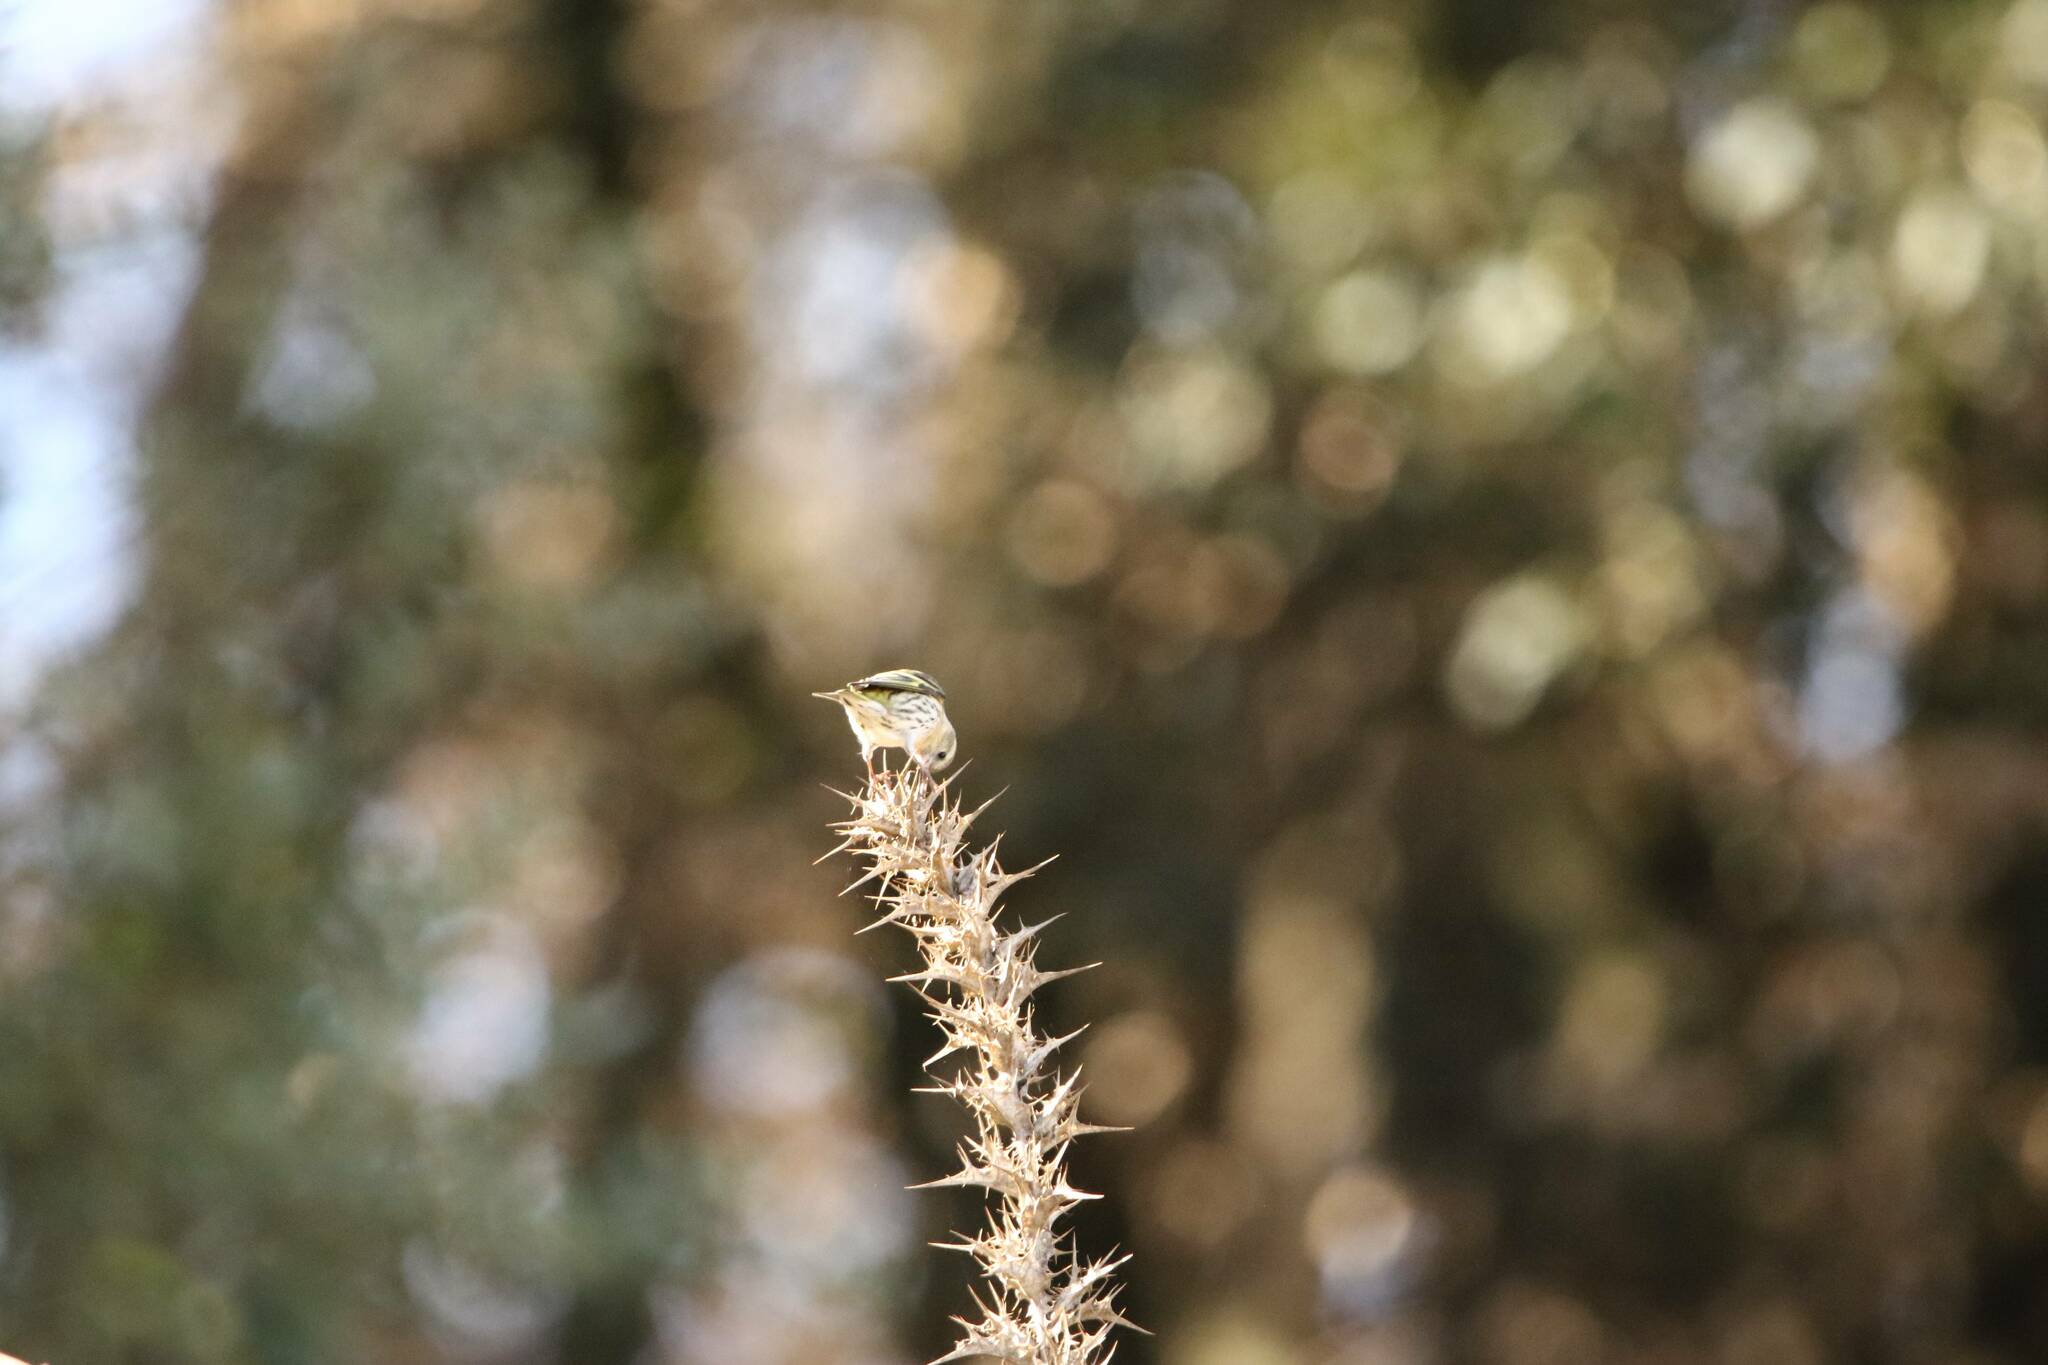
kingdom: Animalia
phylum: Chordata
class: Aves
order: Passeriformes
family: Fringillidae
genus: Spinus
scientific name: Spinus spinus
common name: Eurasian siskin
